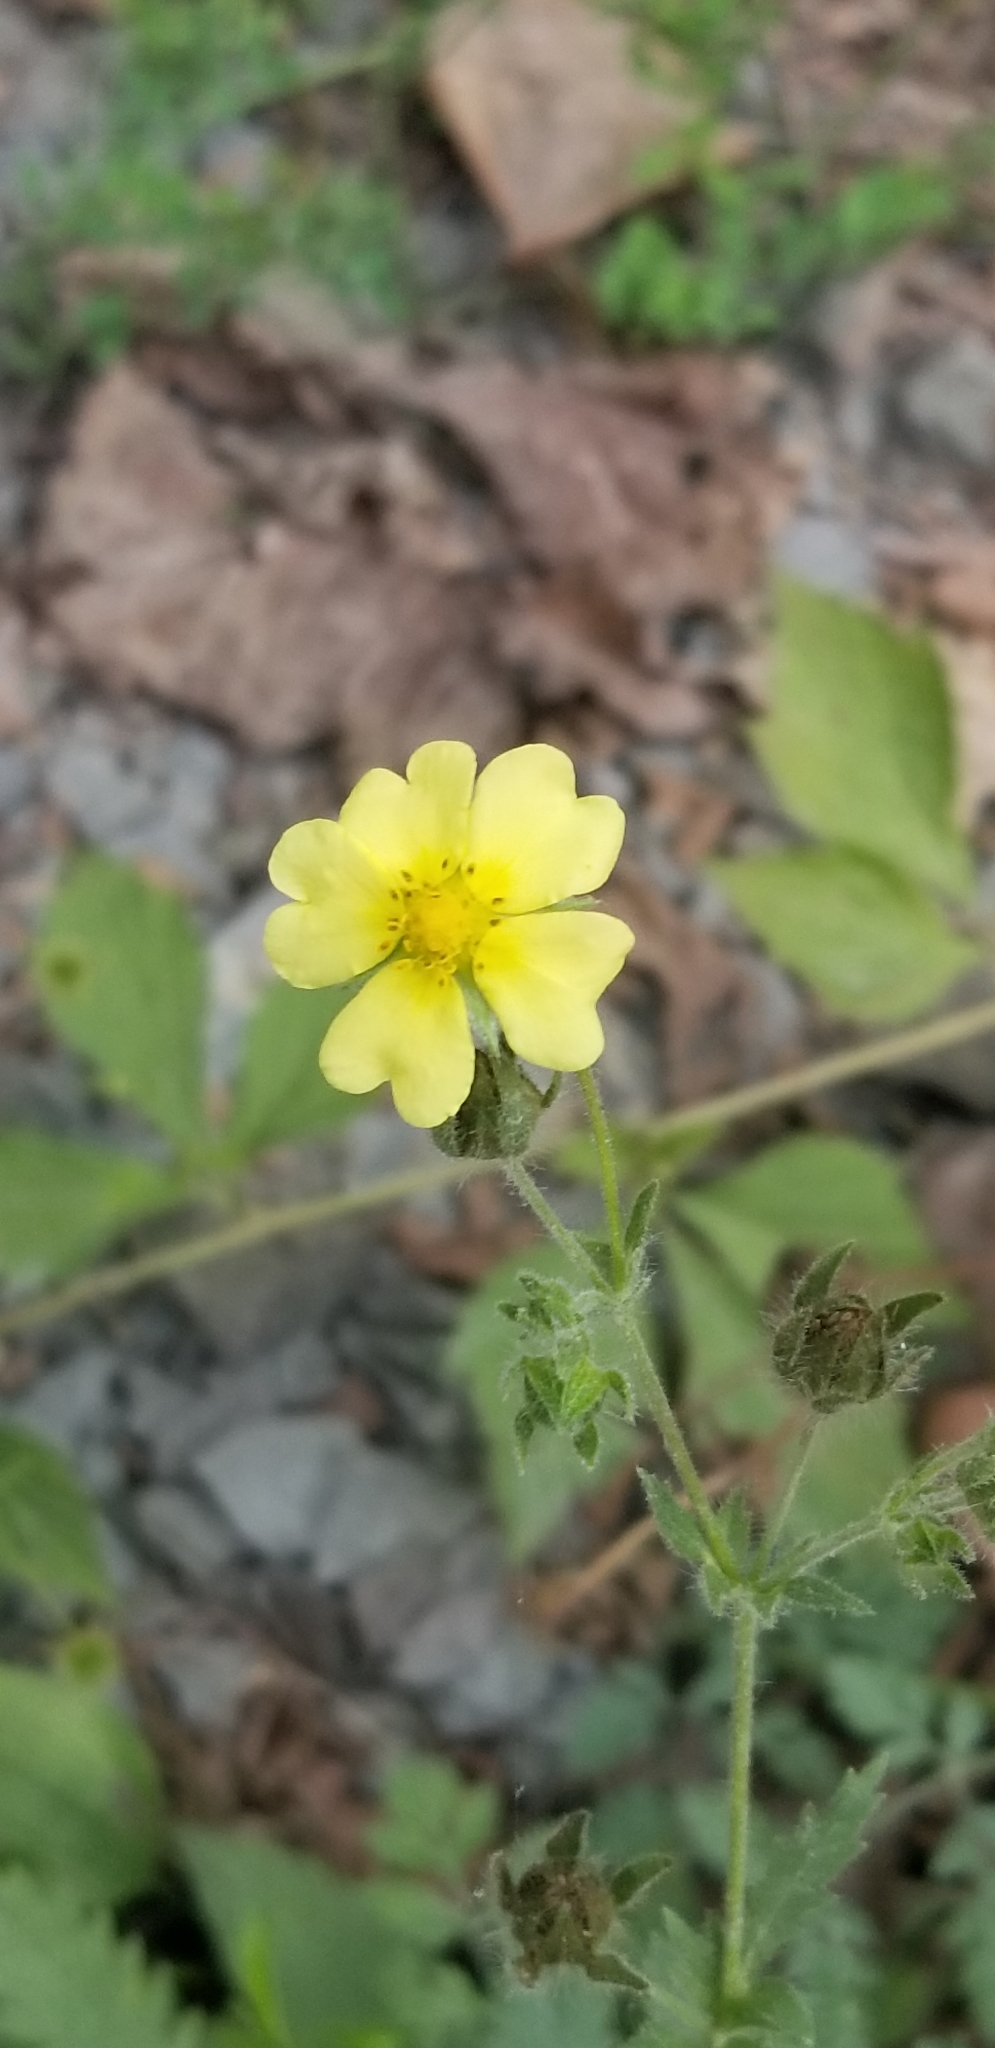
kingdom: Plantae
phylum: Tracheophyta
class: Magnoliopsida
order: Rosales
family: Rosaceae
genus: Potentilla
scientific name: Potentilla recta
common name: Sulphur cinquefoil
